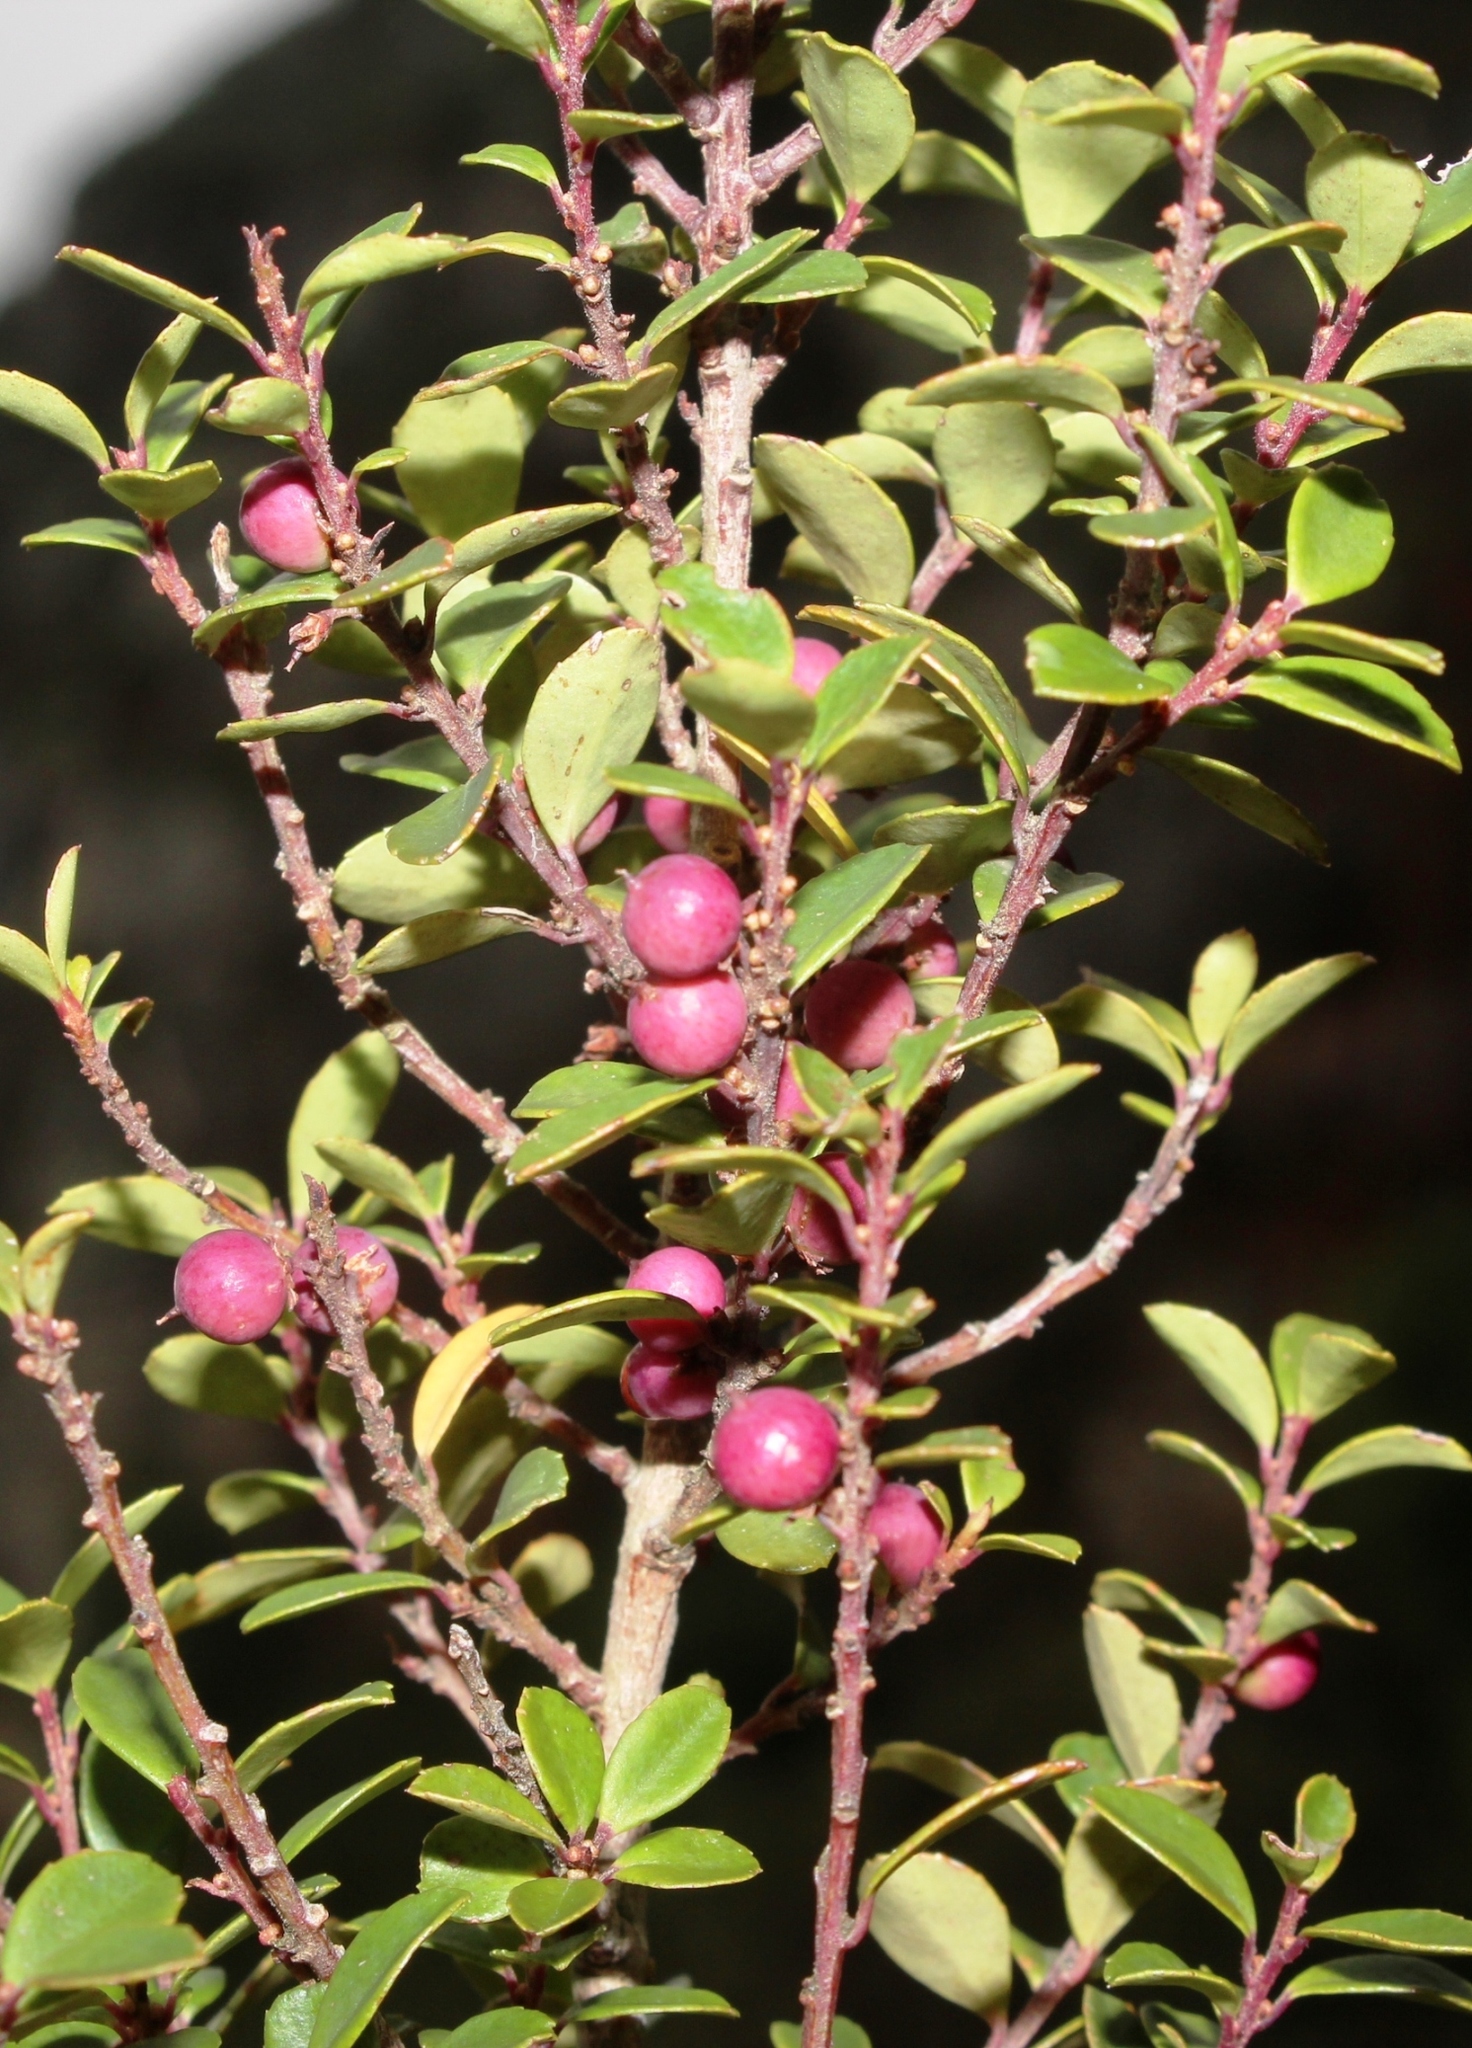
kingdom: Plantae
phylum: Tracheophyta
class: Magnoliopsida
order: Ericales
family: Primulaceae
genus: Myrsine
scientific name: Myrsine africana
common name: African-boxwood
